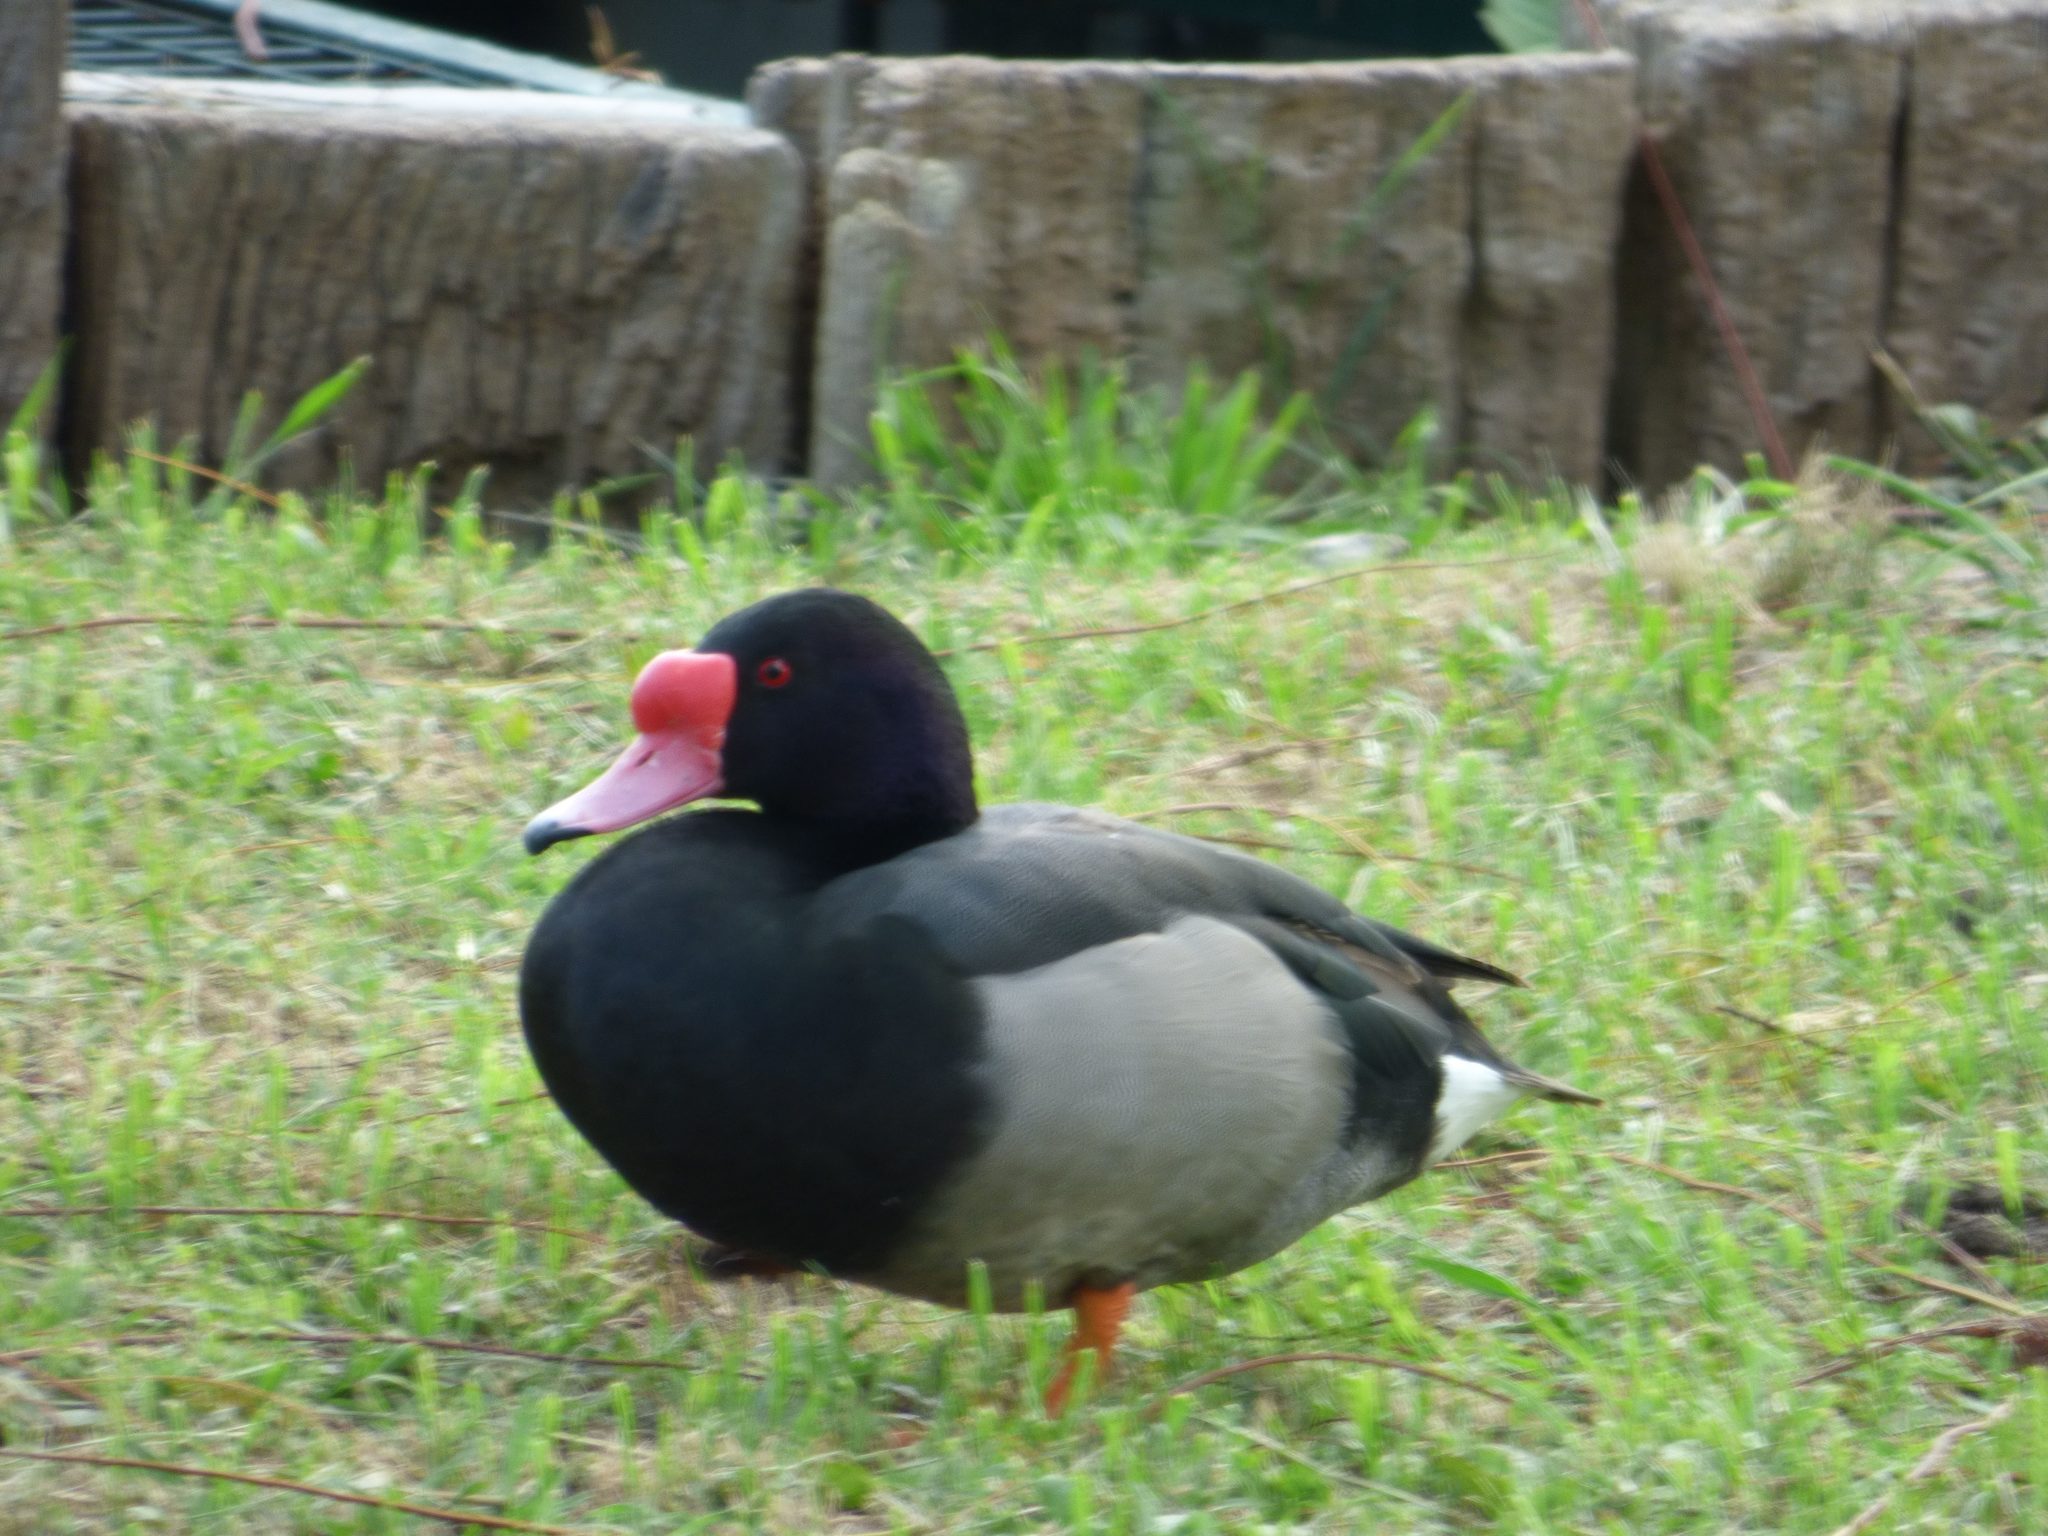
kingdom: Animalia
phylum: Chordata
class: Aves
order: Anseriformes
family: Anatidae
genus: Netta
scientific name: Netta peposaca
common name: Rosy-billed pochard
